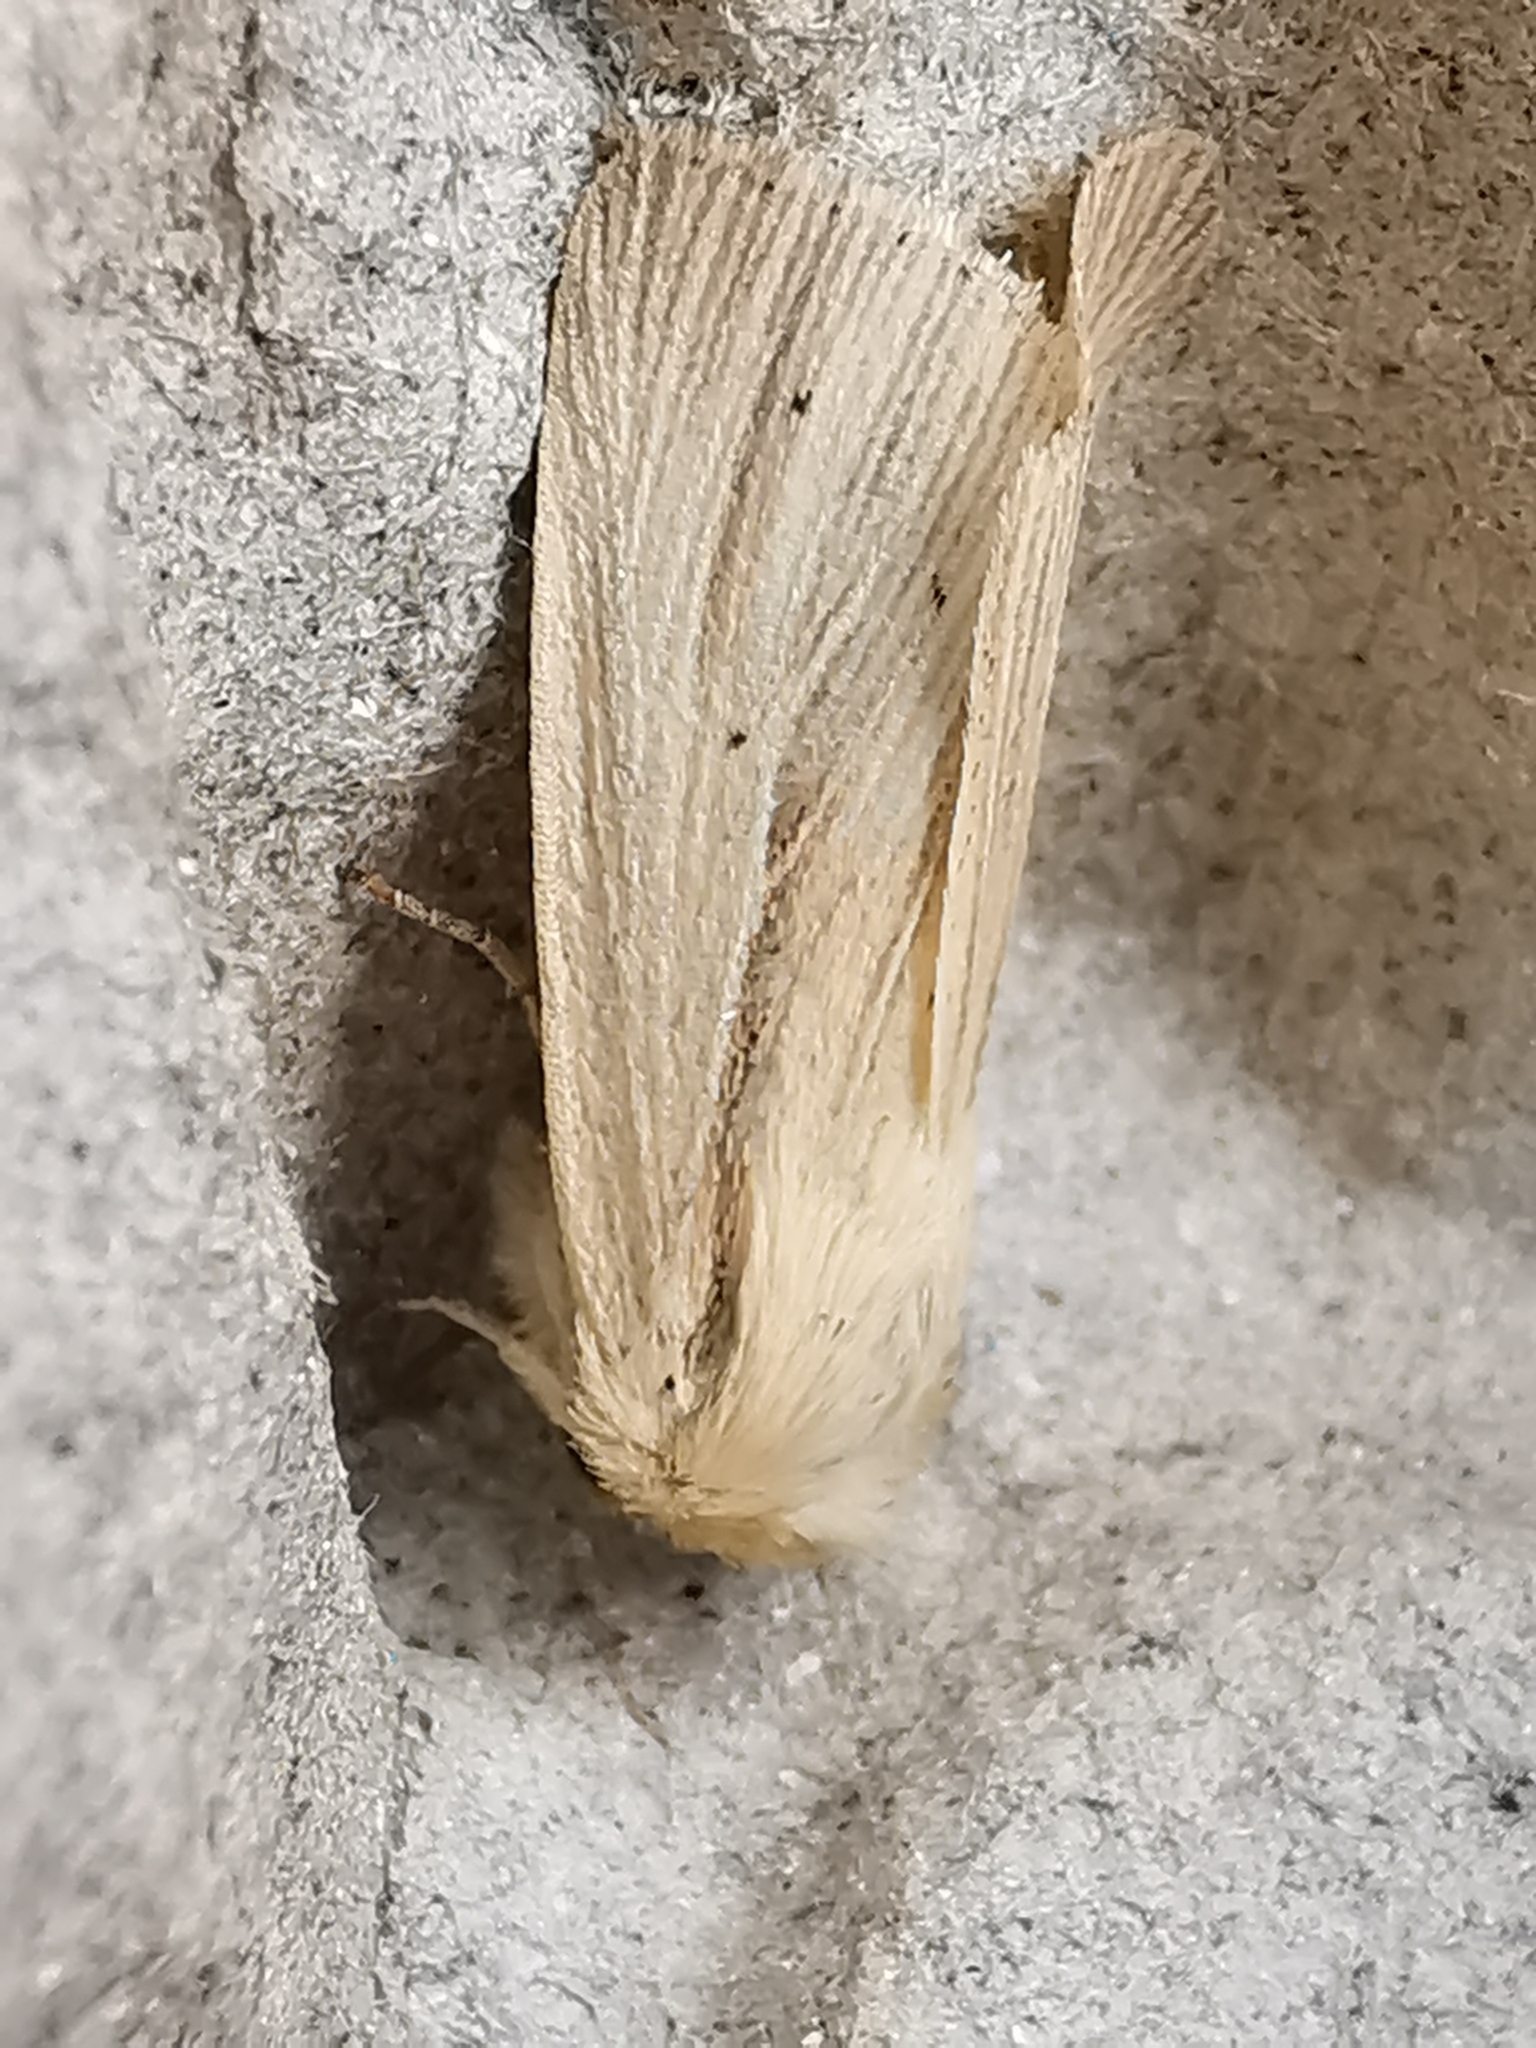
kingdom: Animalia
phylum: Arthropoda
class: Insecta
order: Lepidoptera
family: Noctuidae
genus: Mythimna
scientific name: Mythimna impura
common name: Smoky wainscot
